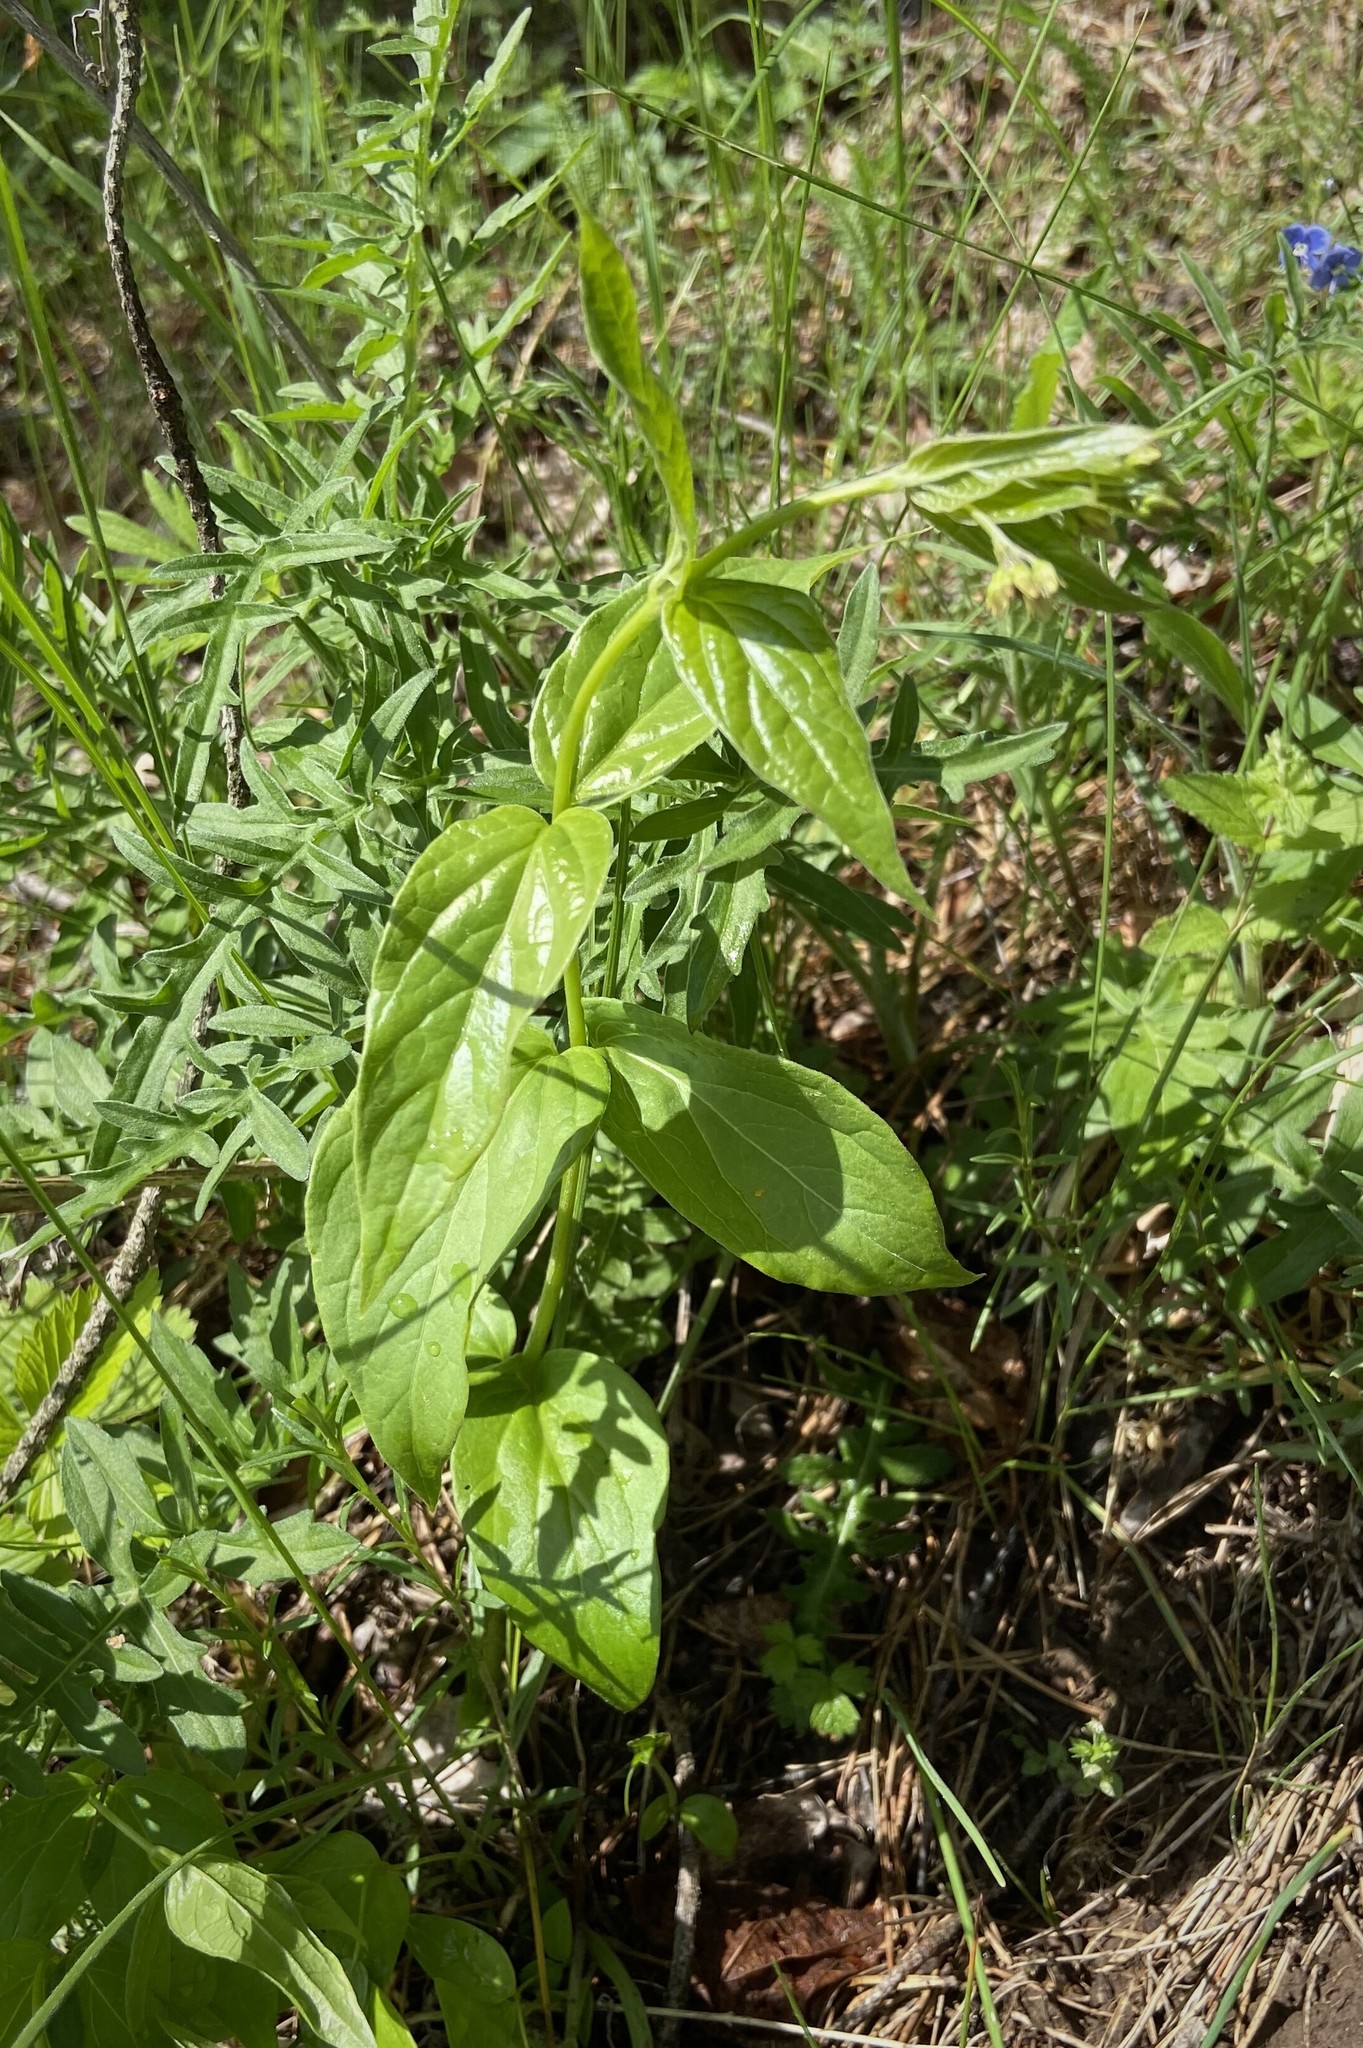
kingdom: Plantae
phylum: Tracheophyta
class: Magnoliopsida
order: Gentianales
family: Apocynaceae
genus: Vincetoxicum
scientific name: Vincetoxicum hirundinaria
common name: White swallowwort
